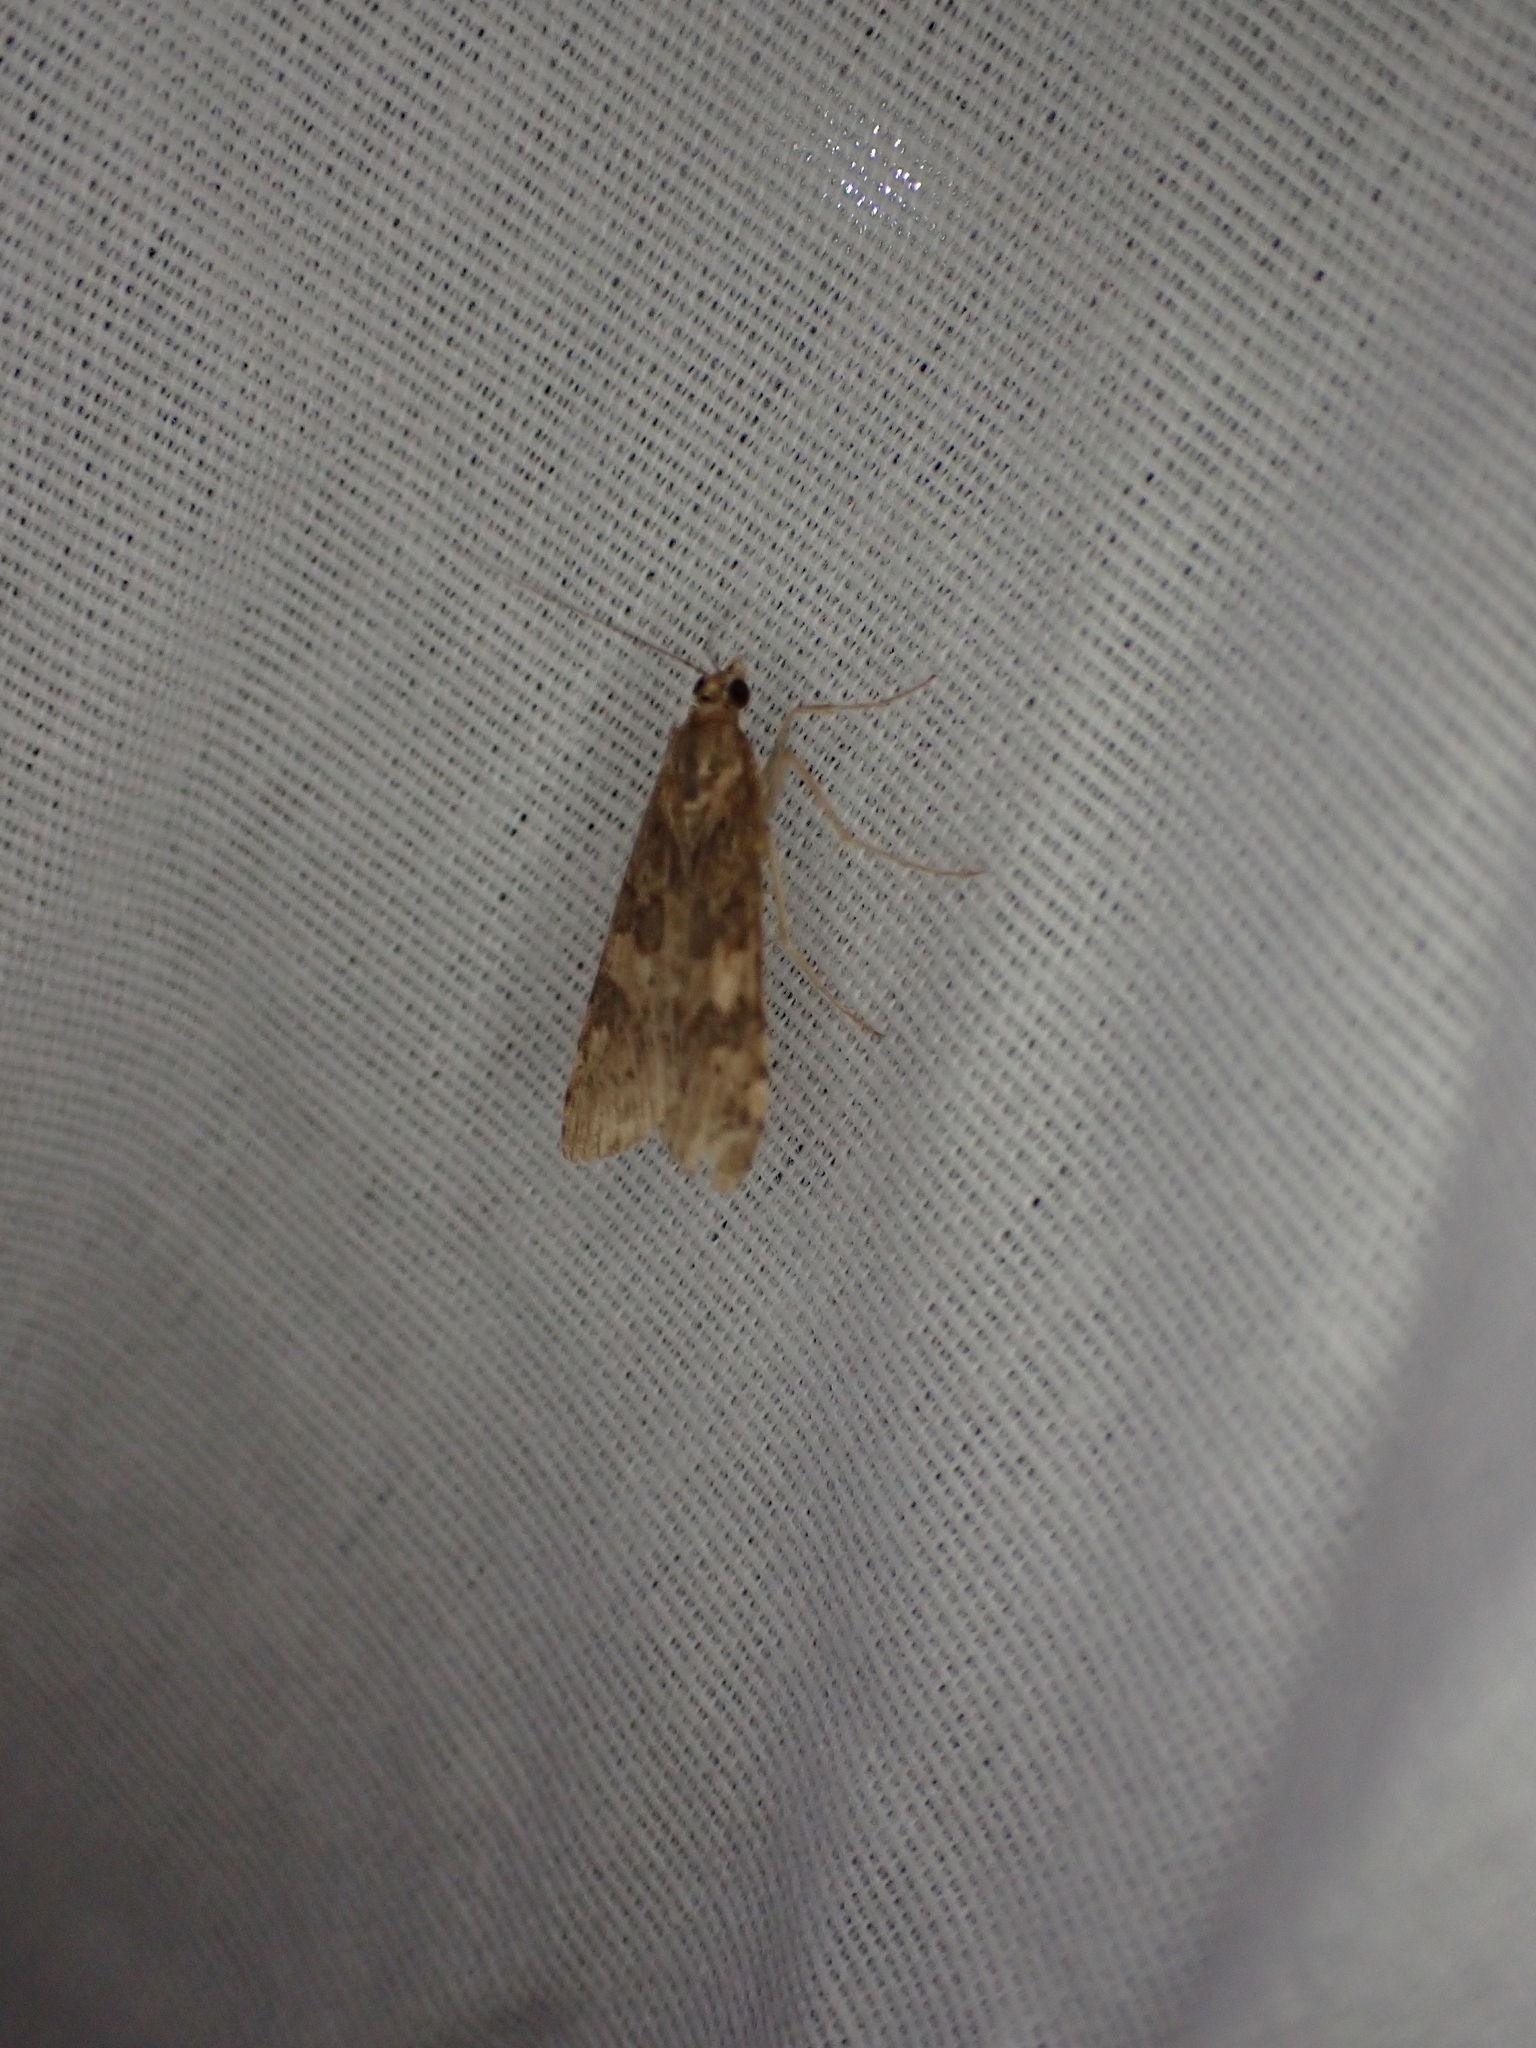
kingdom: Animalia
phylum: Arthropoda
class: Insecta
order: Lepidoptera
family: Crambidae
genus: Nomophila
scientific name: Nomophila nearctica
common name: American rush veneer
